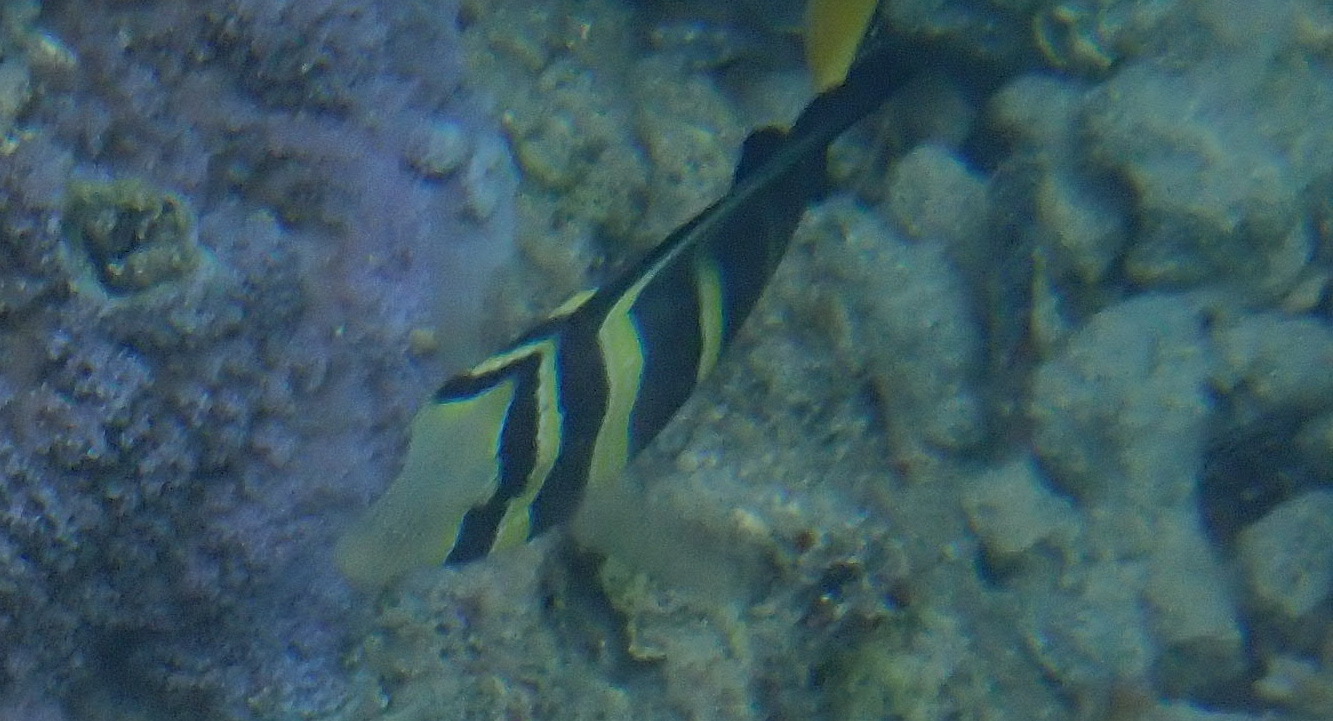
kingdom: Animalia
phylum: Chordata
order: Perciformes
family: Acanthuridae
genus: Zebrasoma
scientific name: Zebrasoma veliferum
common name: Sailfin surgeonfish
